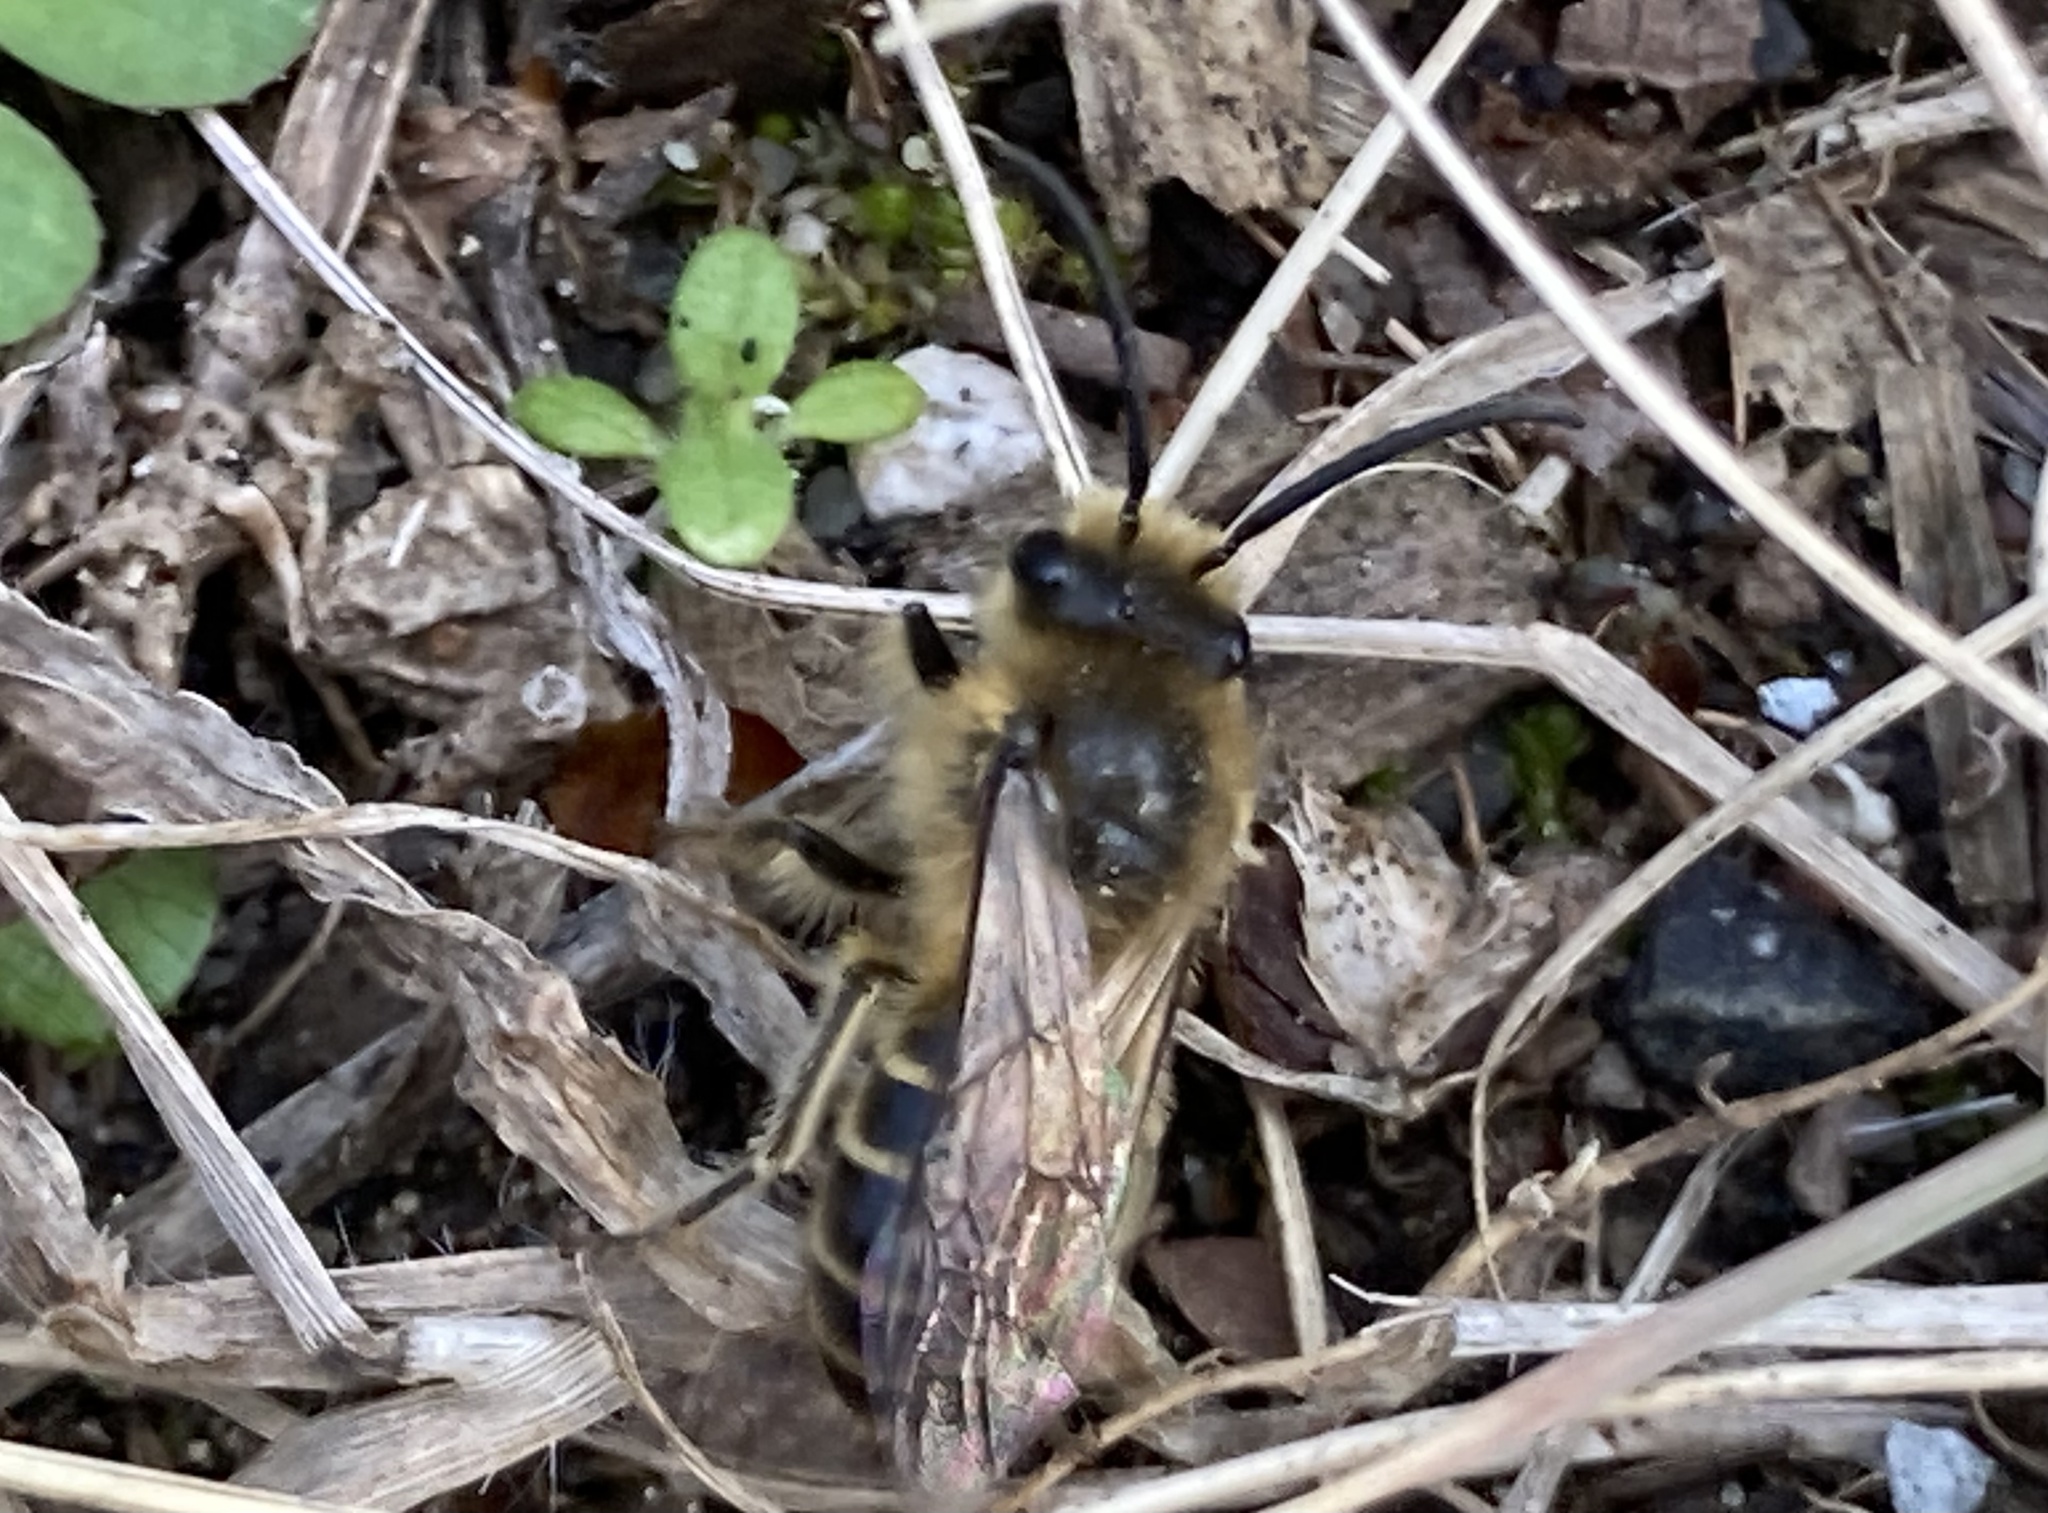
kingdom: Animalia
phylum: Arthropoda
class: Insecta
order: Hymenoptera
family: Colletidae
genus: Colletes
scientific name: Colletes inaequalis
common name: Unequal cellophane bee
